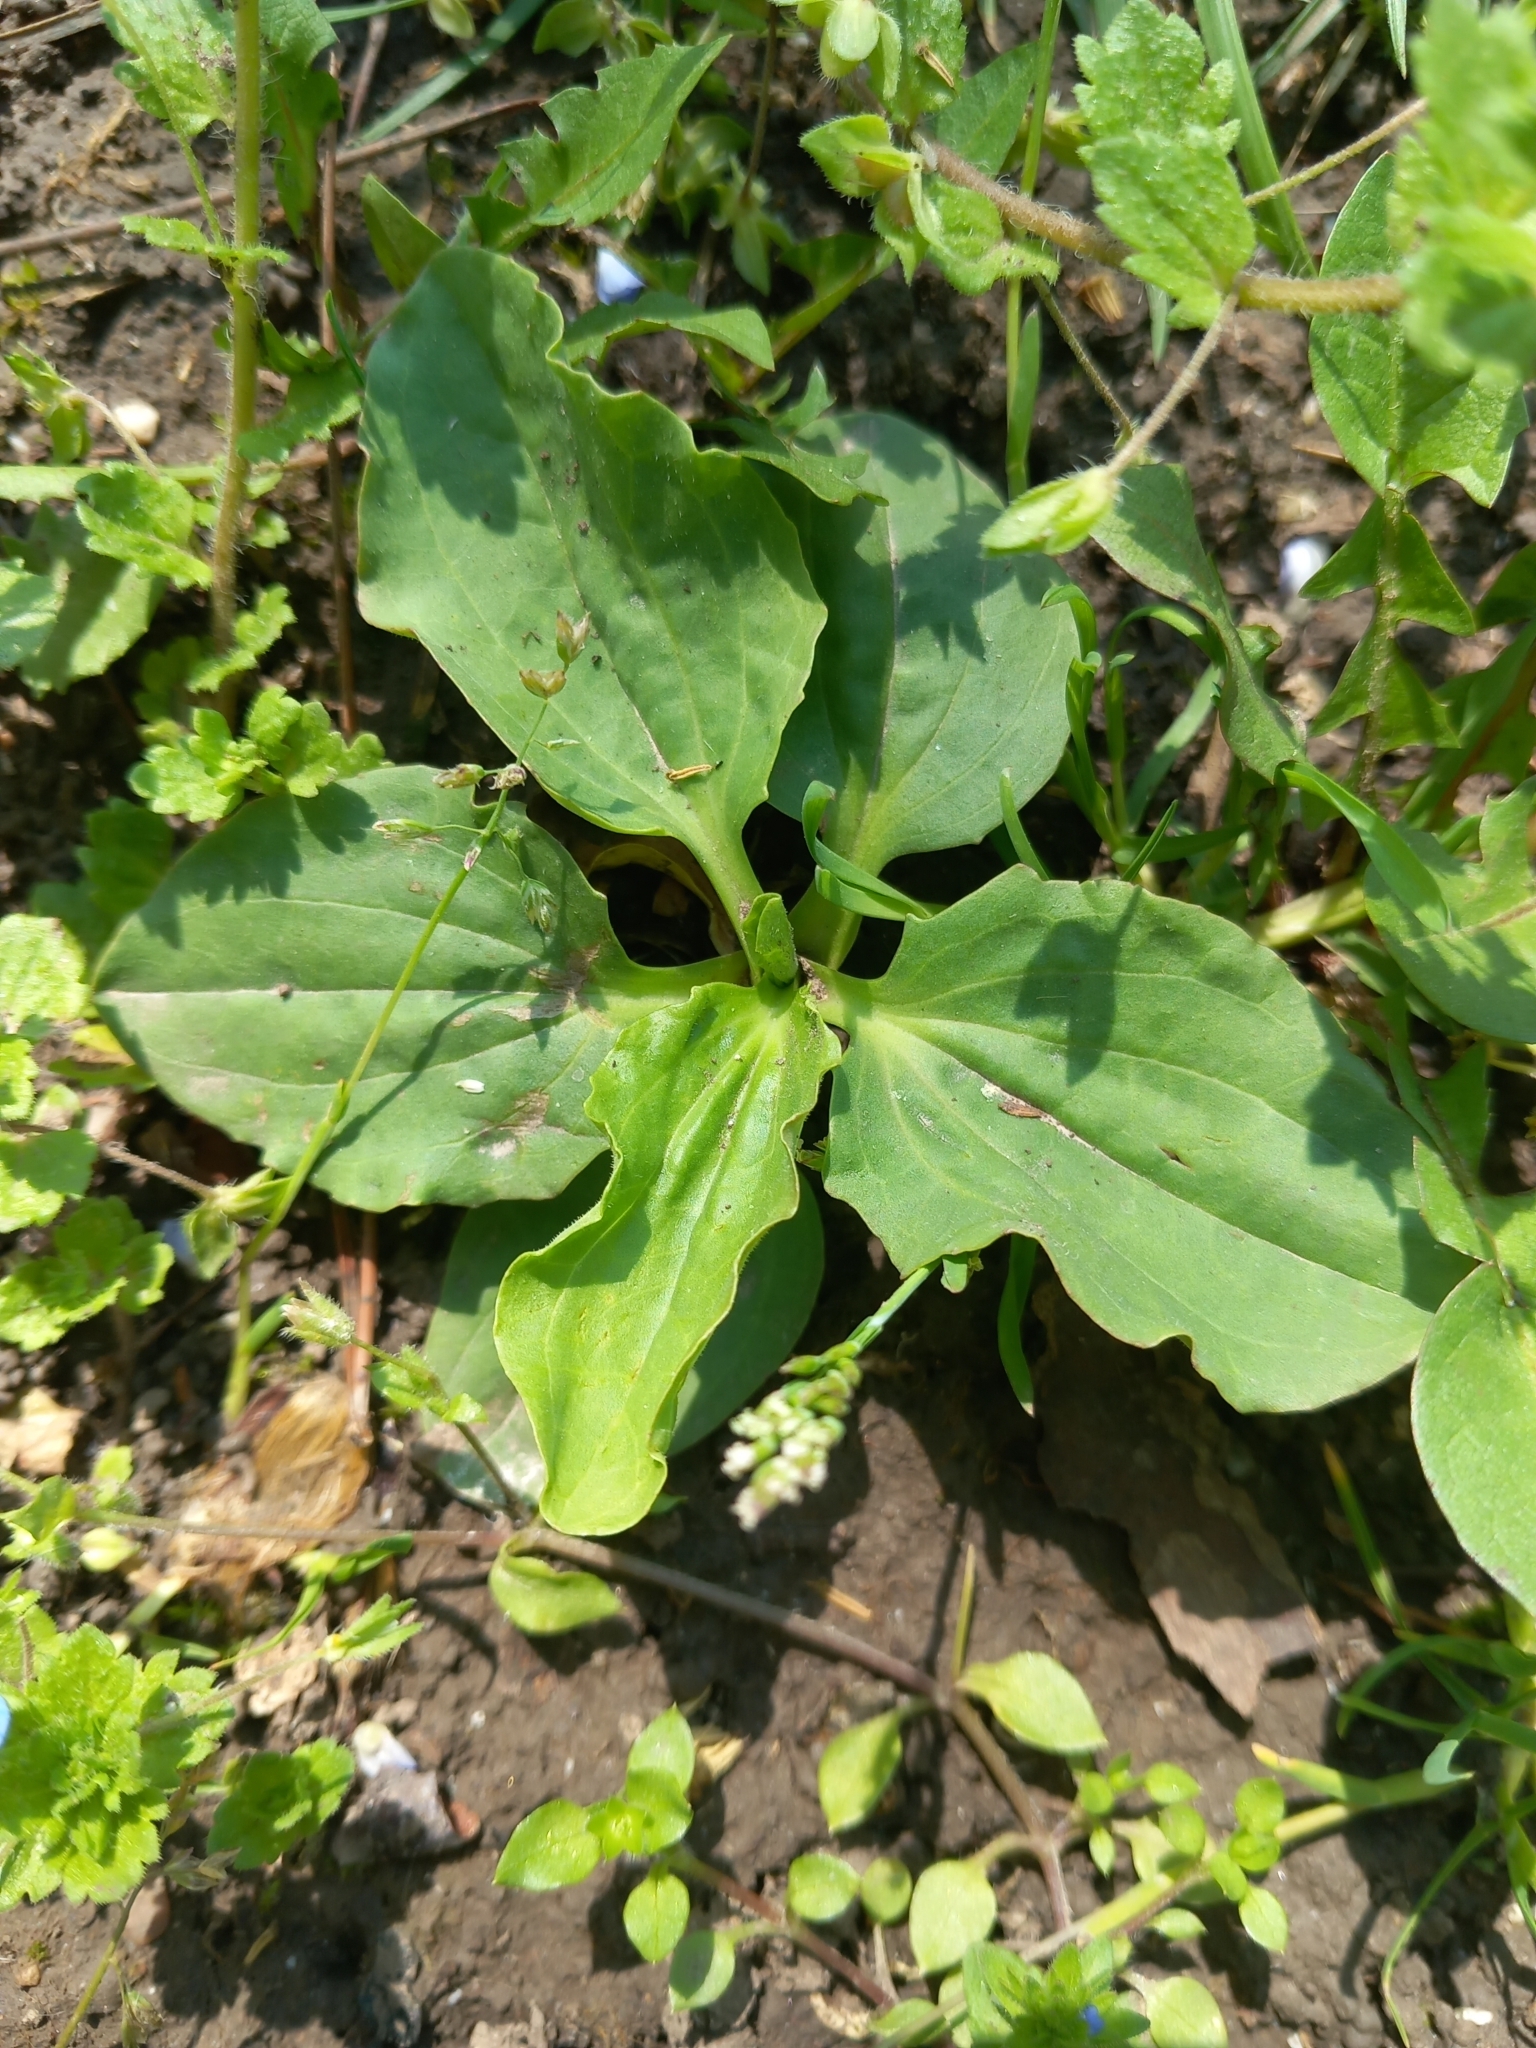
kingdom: Plantae
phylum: Tracheophyta
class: Magnoliopsida
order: Lamiales
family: Plantaginaceae
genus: Plantago
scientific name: Plantago major
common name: Common plantain
